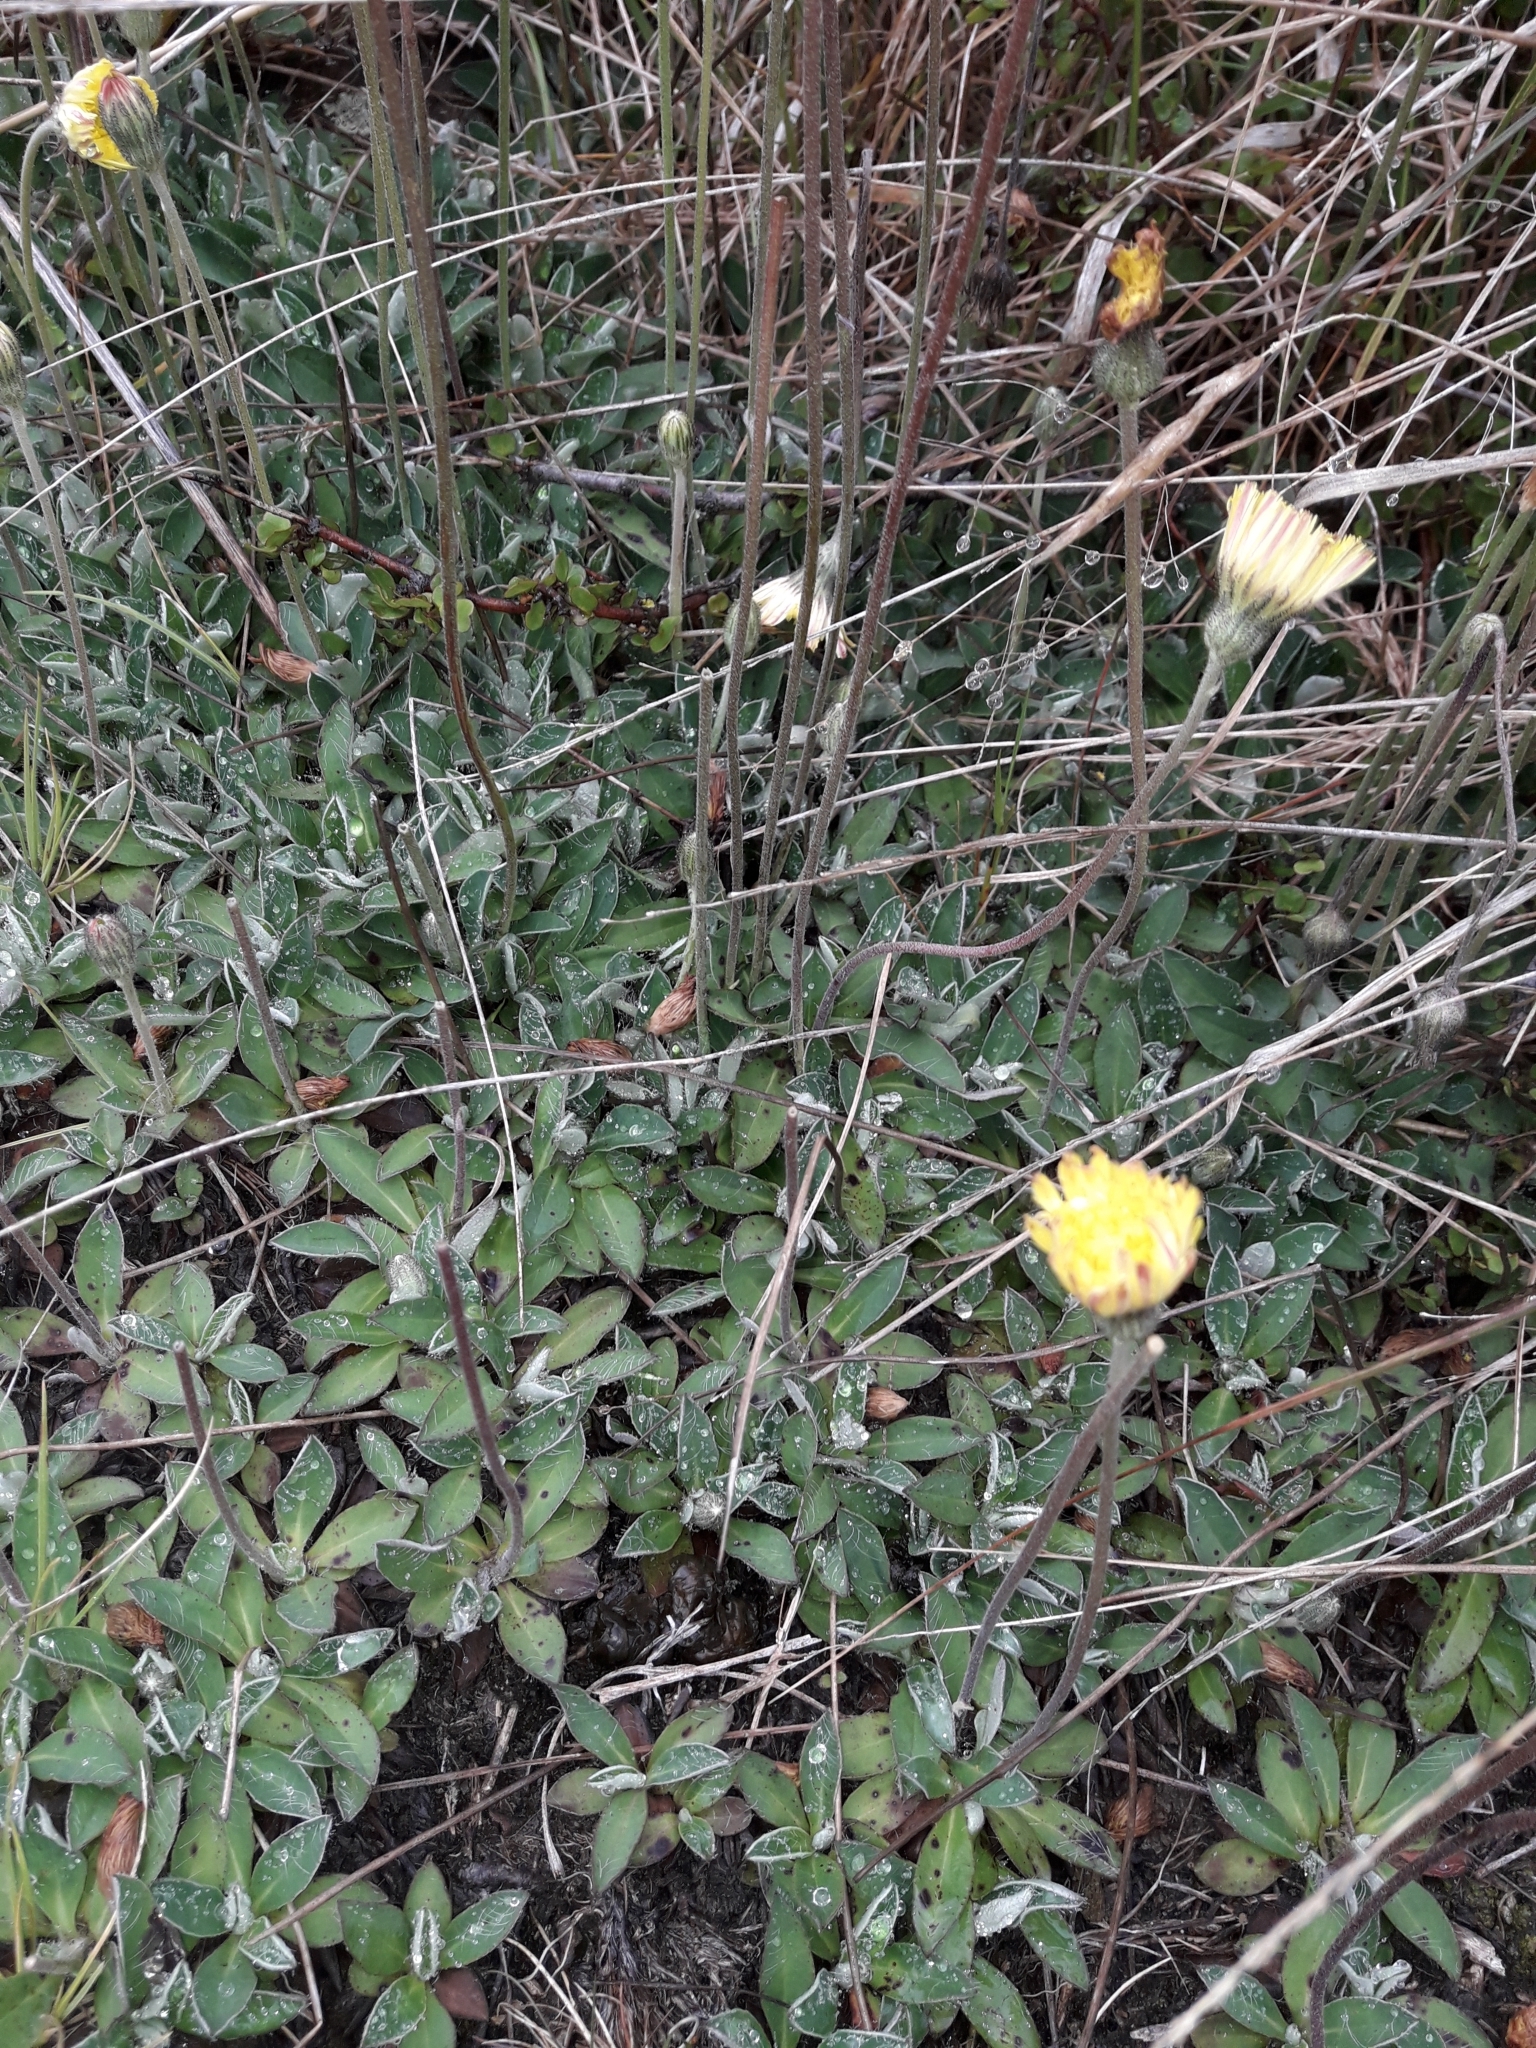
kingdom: Plantae
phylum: Tracheophyta
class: Magnoliopsida
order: Asterales
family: Asteraceae
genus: Pilosella
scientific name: Pilosella officinarum
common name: Mouse-ear hawkweed
